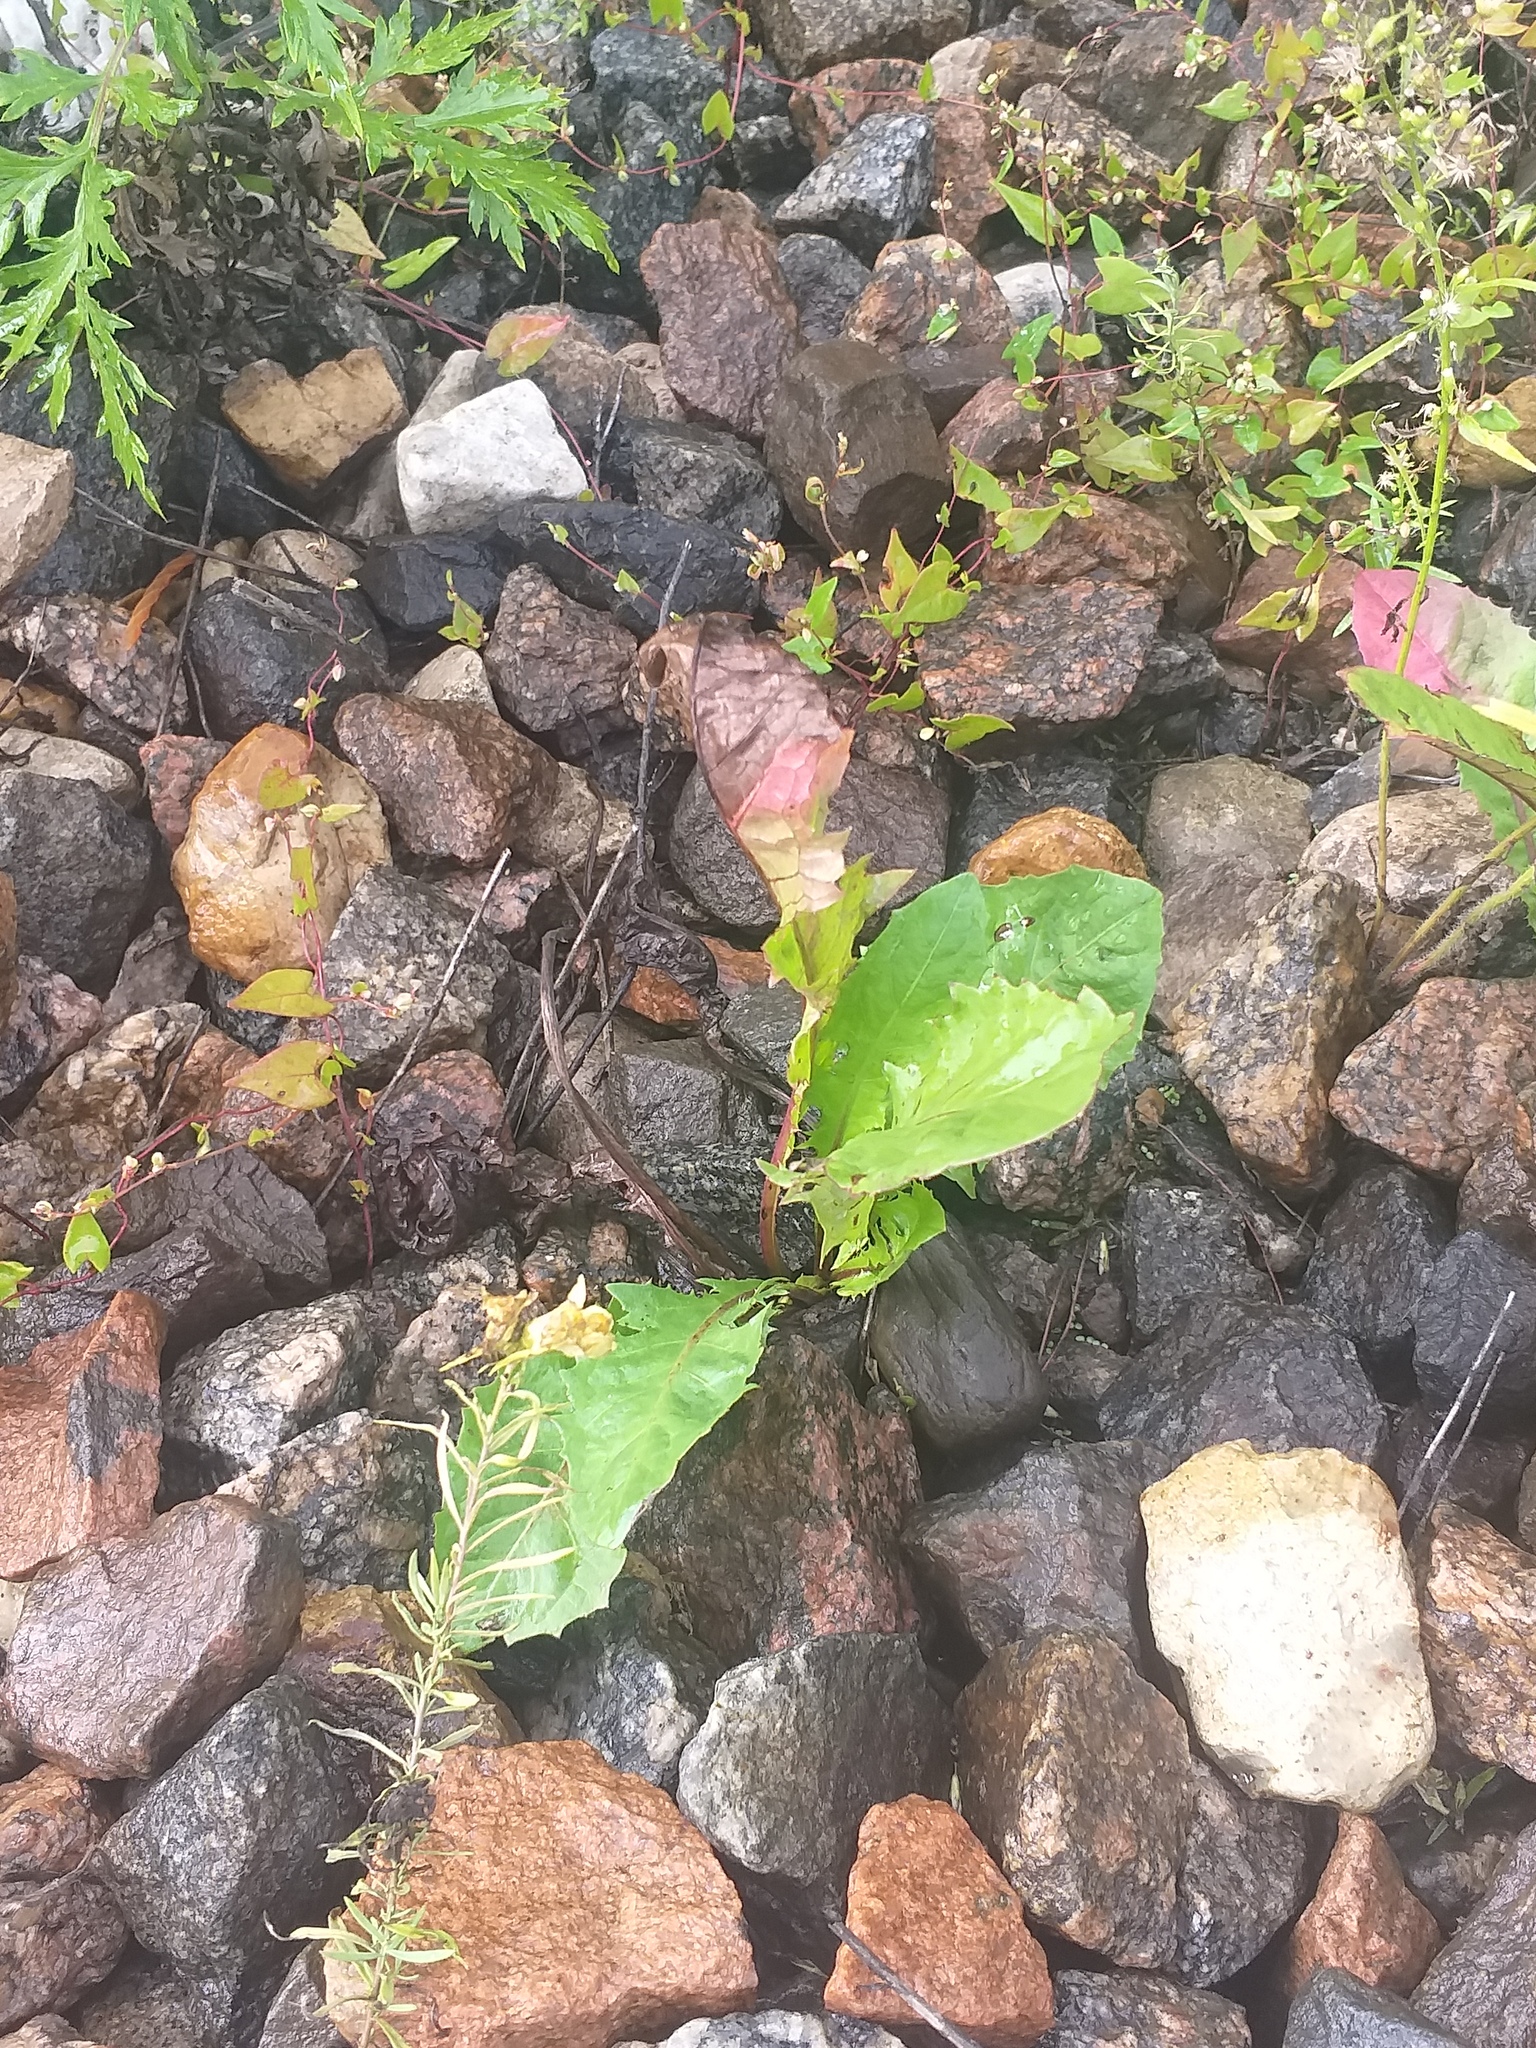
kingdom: Plantae
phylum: Tracheophyta
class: Magnoliopsida
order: Asterales
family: Asteraceae
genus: Taraxacum
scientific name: Taraxacum officinale
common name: Common dandelion
